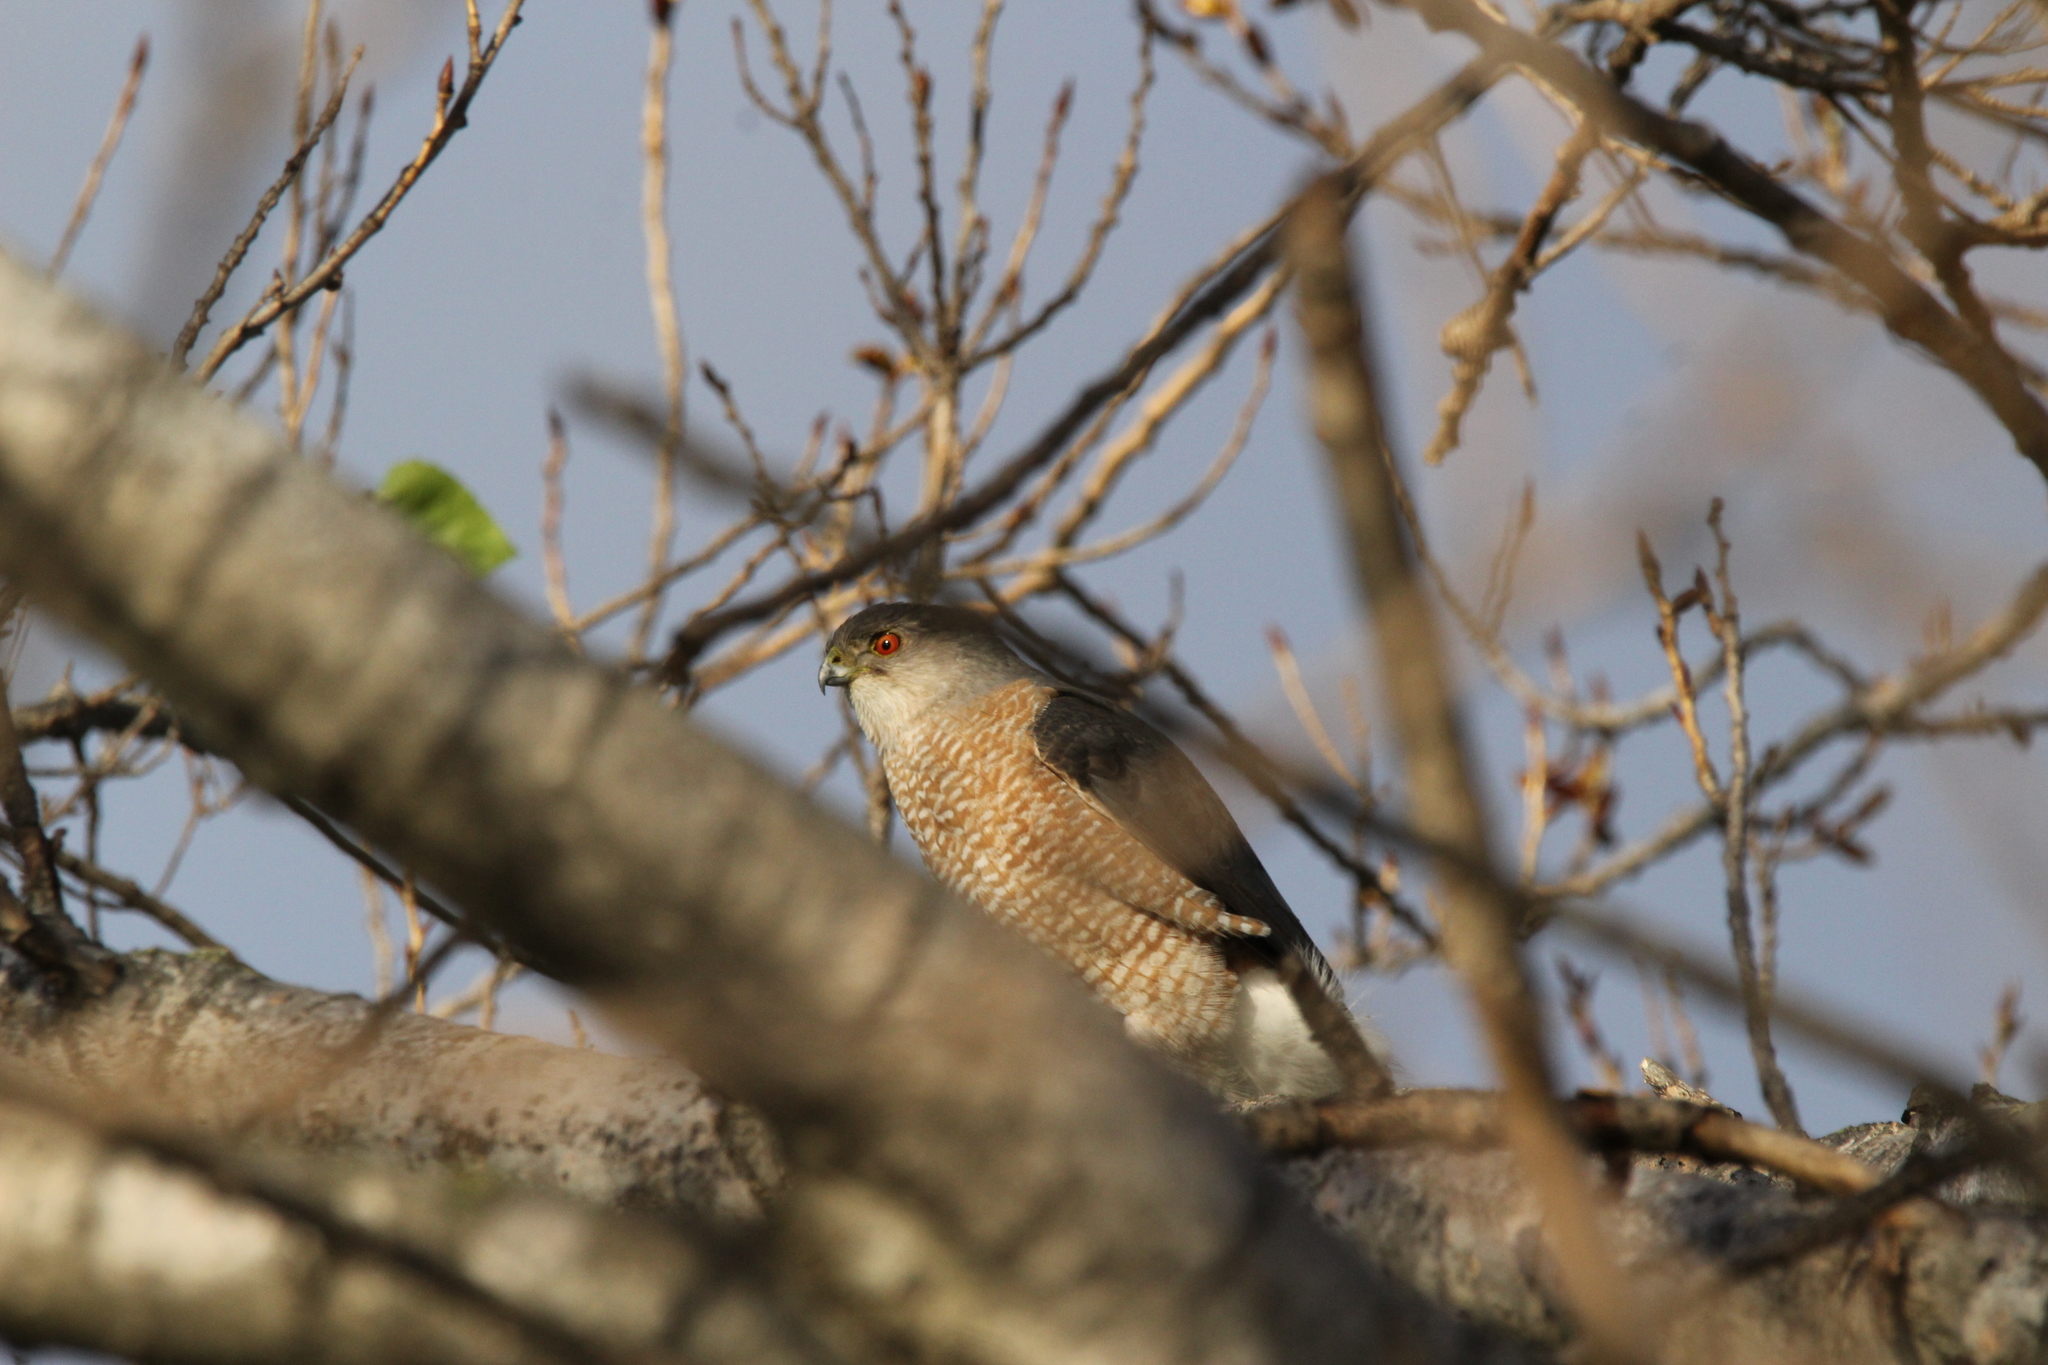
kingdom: Animalia
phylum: Chordata
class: Aves
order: Accipitriformes
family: Accipitridae
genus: Accipiter
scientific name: Accipiter cooperii
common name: Cooper's hawk
